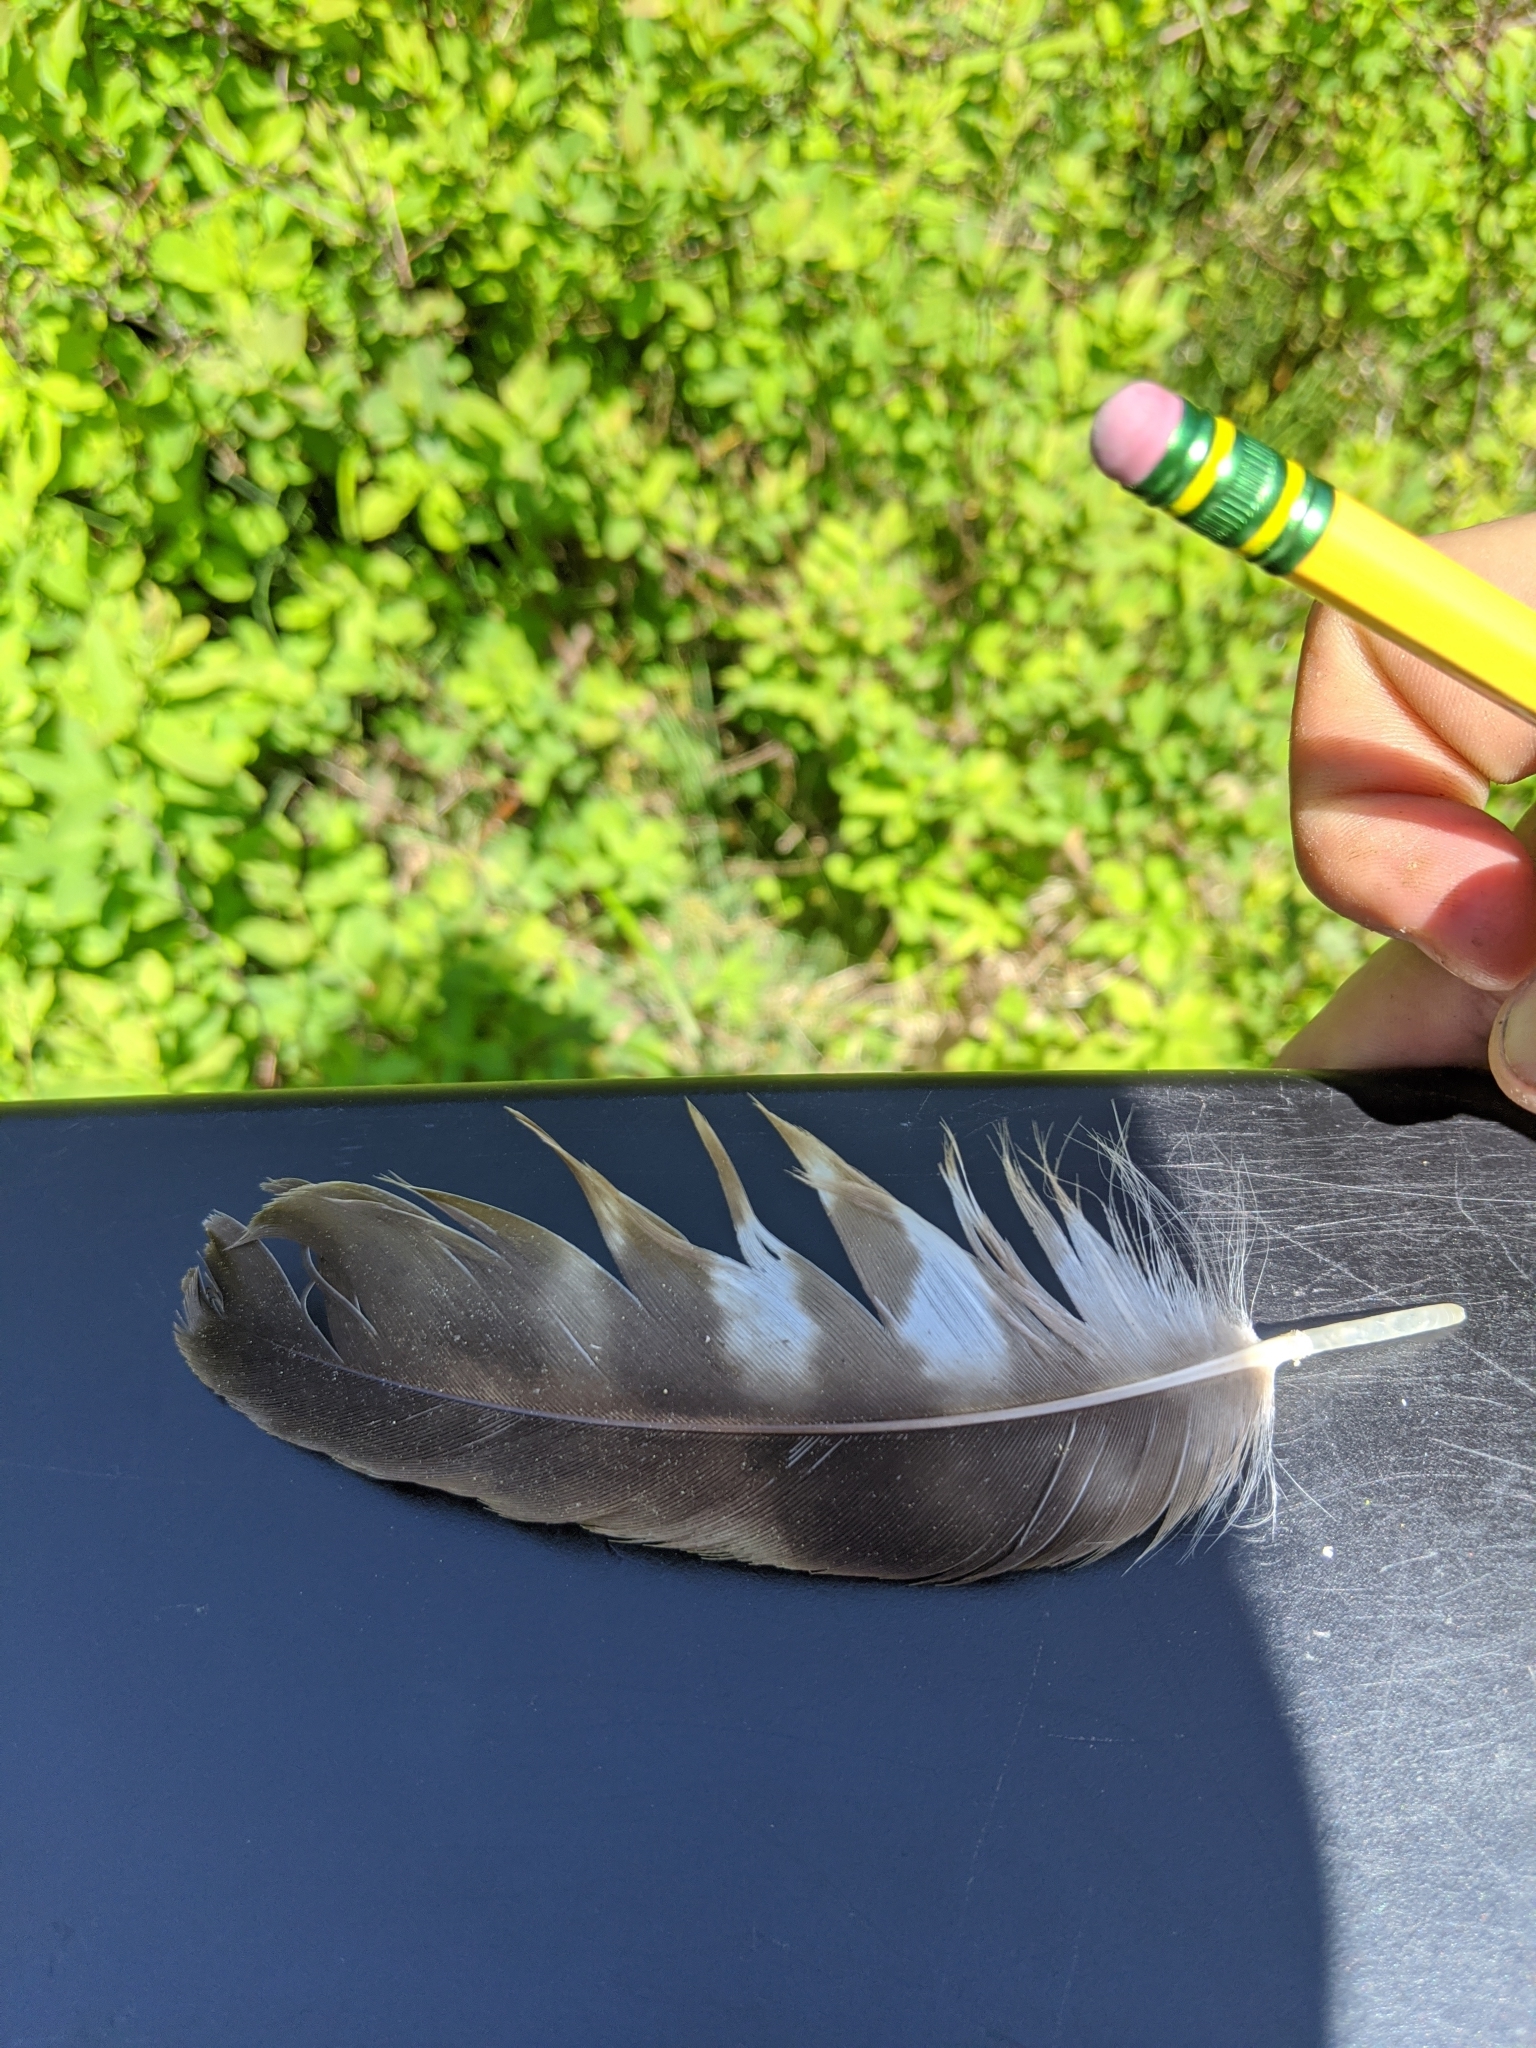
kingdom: Animalia
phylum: Chordata
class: Aves
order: Accipitriformes
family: Pandionidae
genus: Pandion
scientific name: Pandion haliaetus
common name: Osprey
